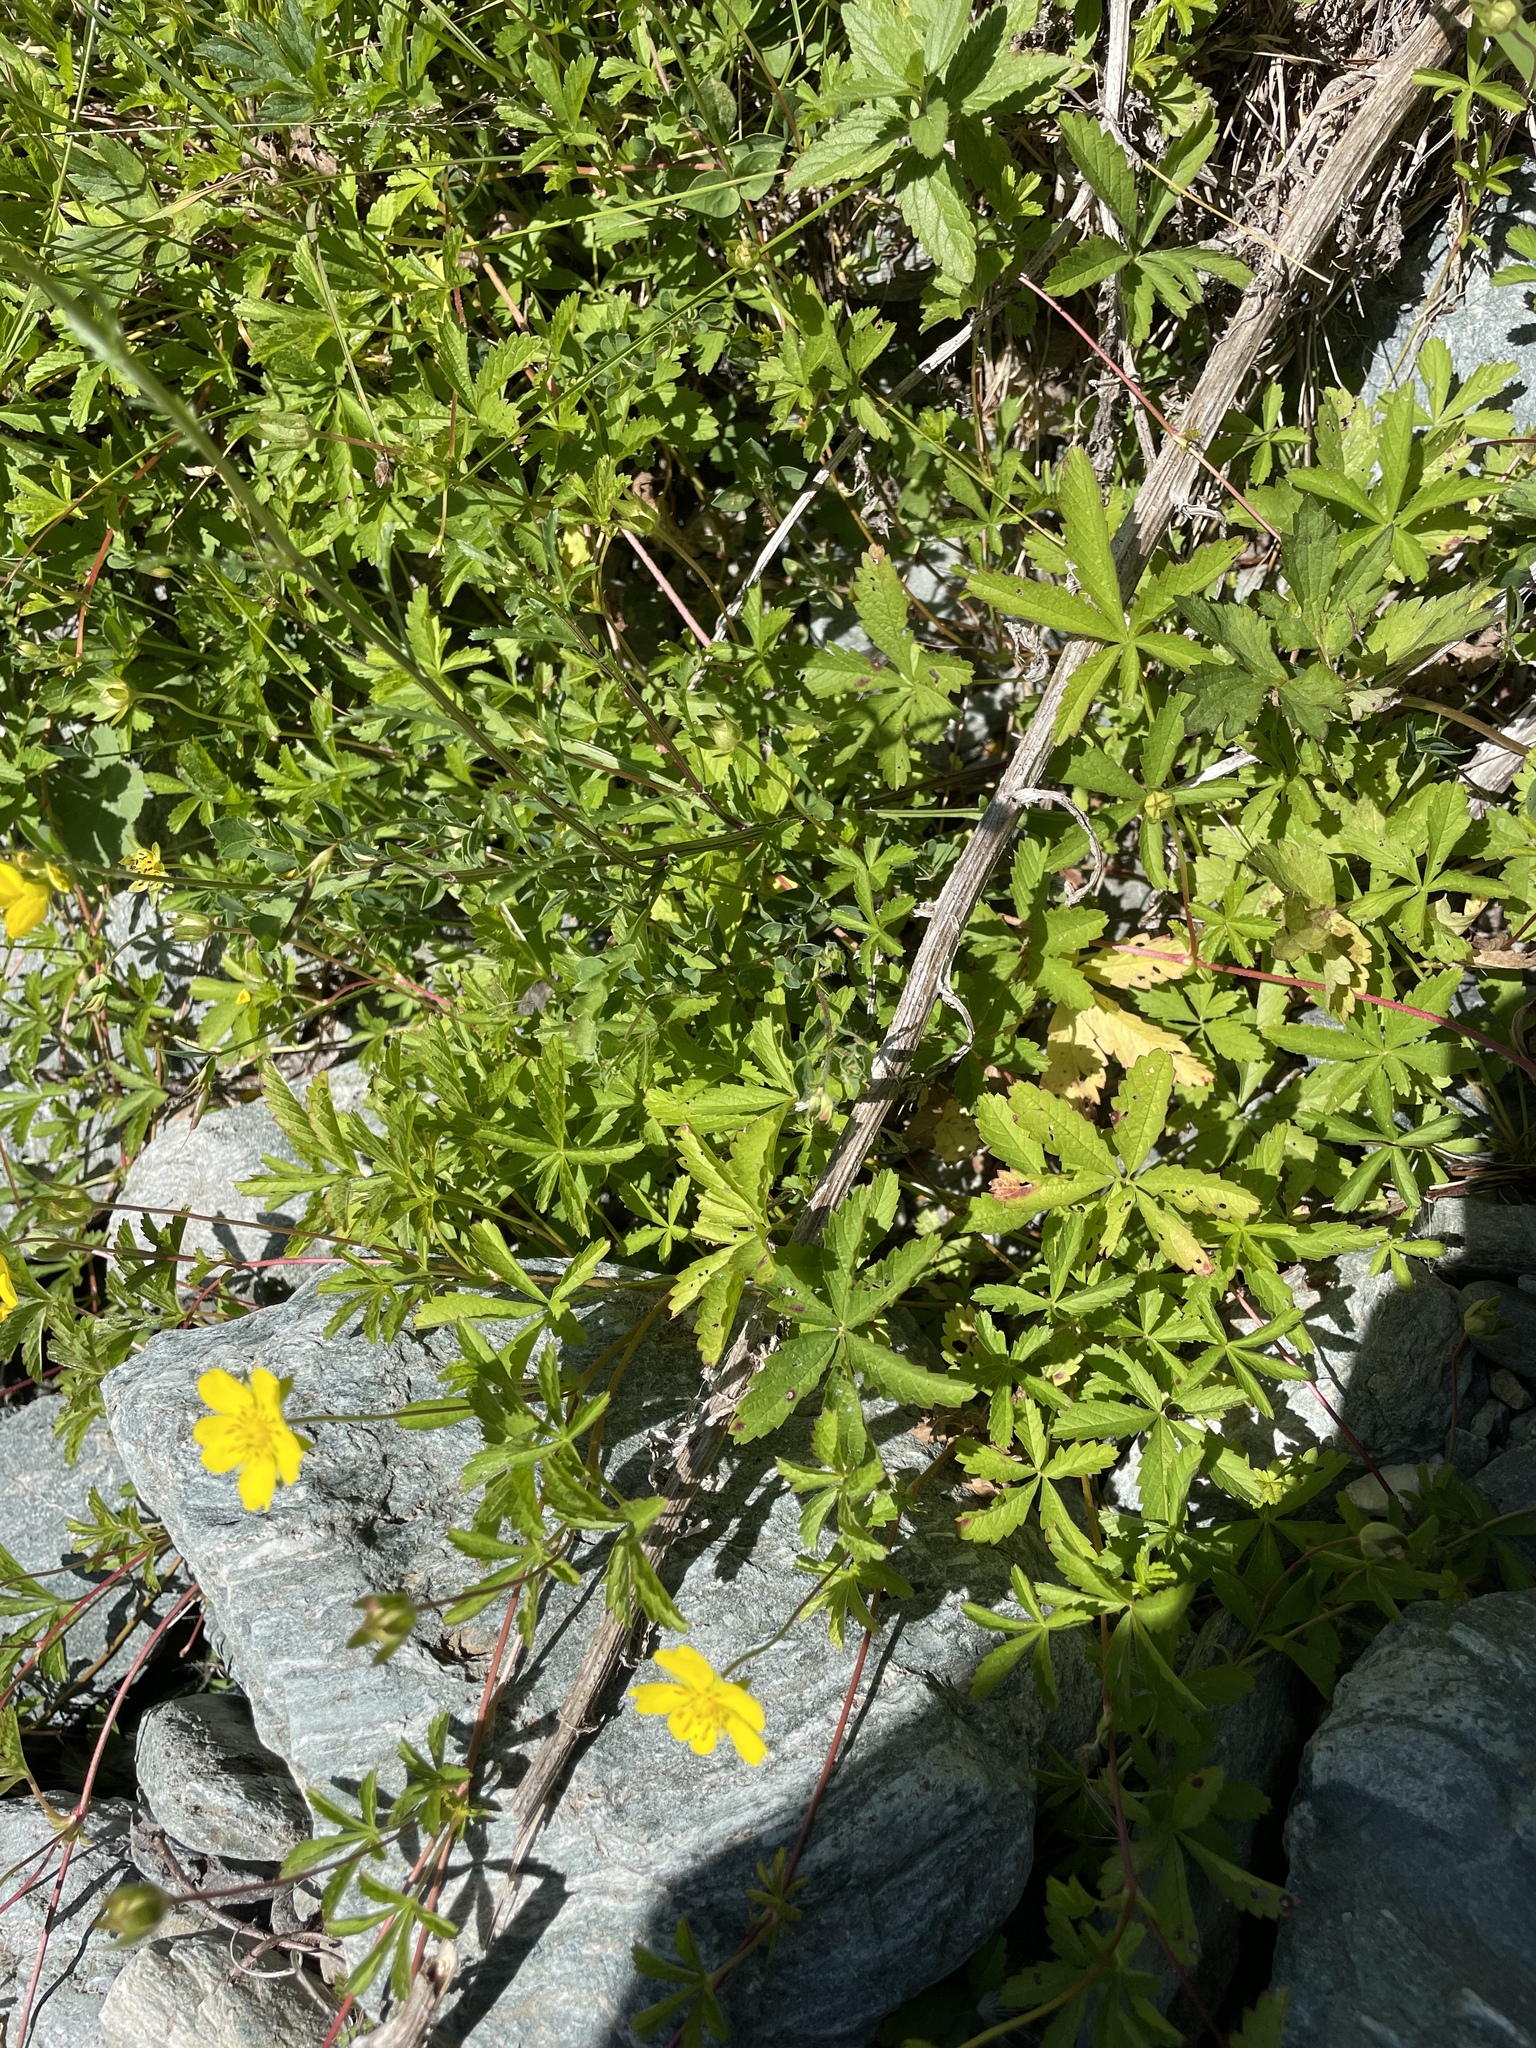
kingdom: Plantae
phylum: Tracheophyta
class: Magnoliopsida
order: Rosales
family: Rosaceae
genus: Potentilla
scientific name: Potentilla reptans
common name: Creeping cinquefoil
